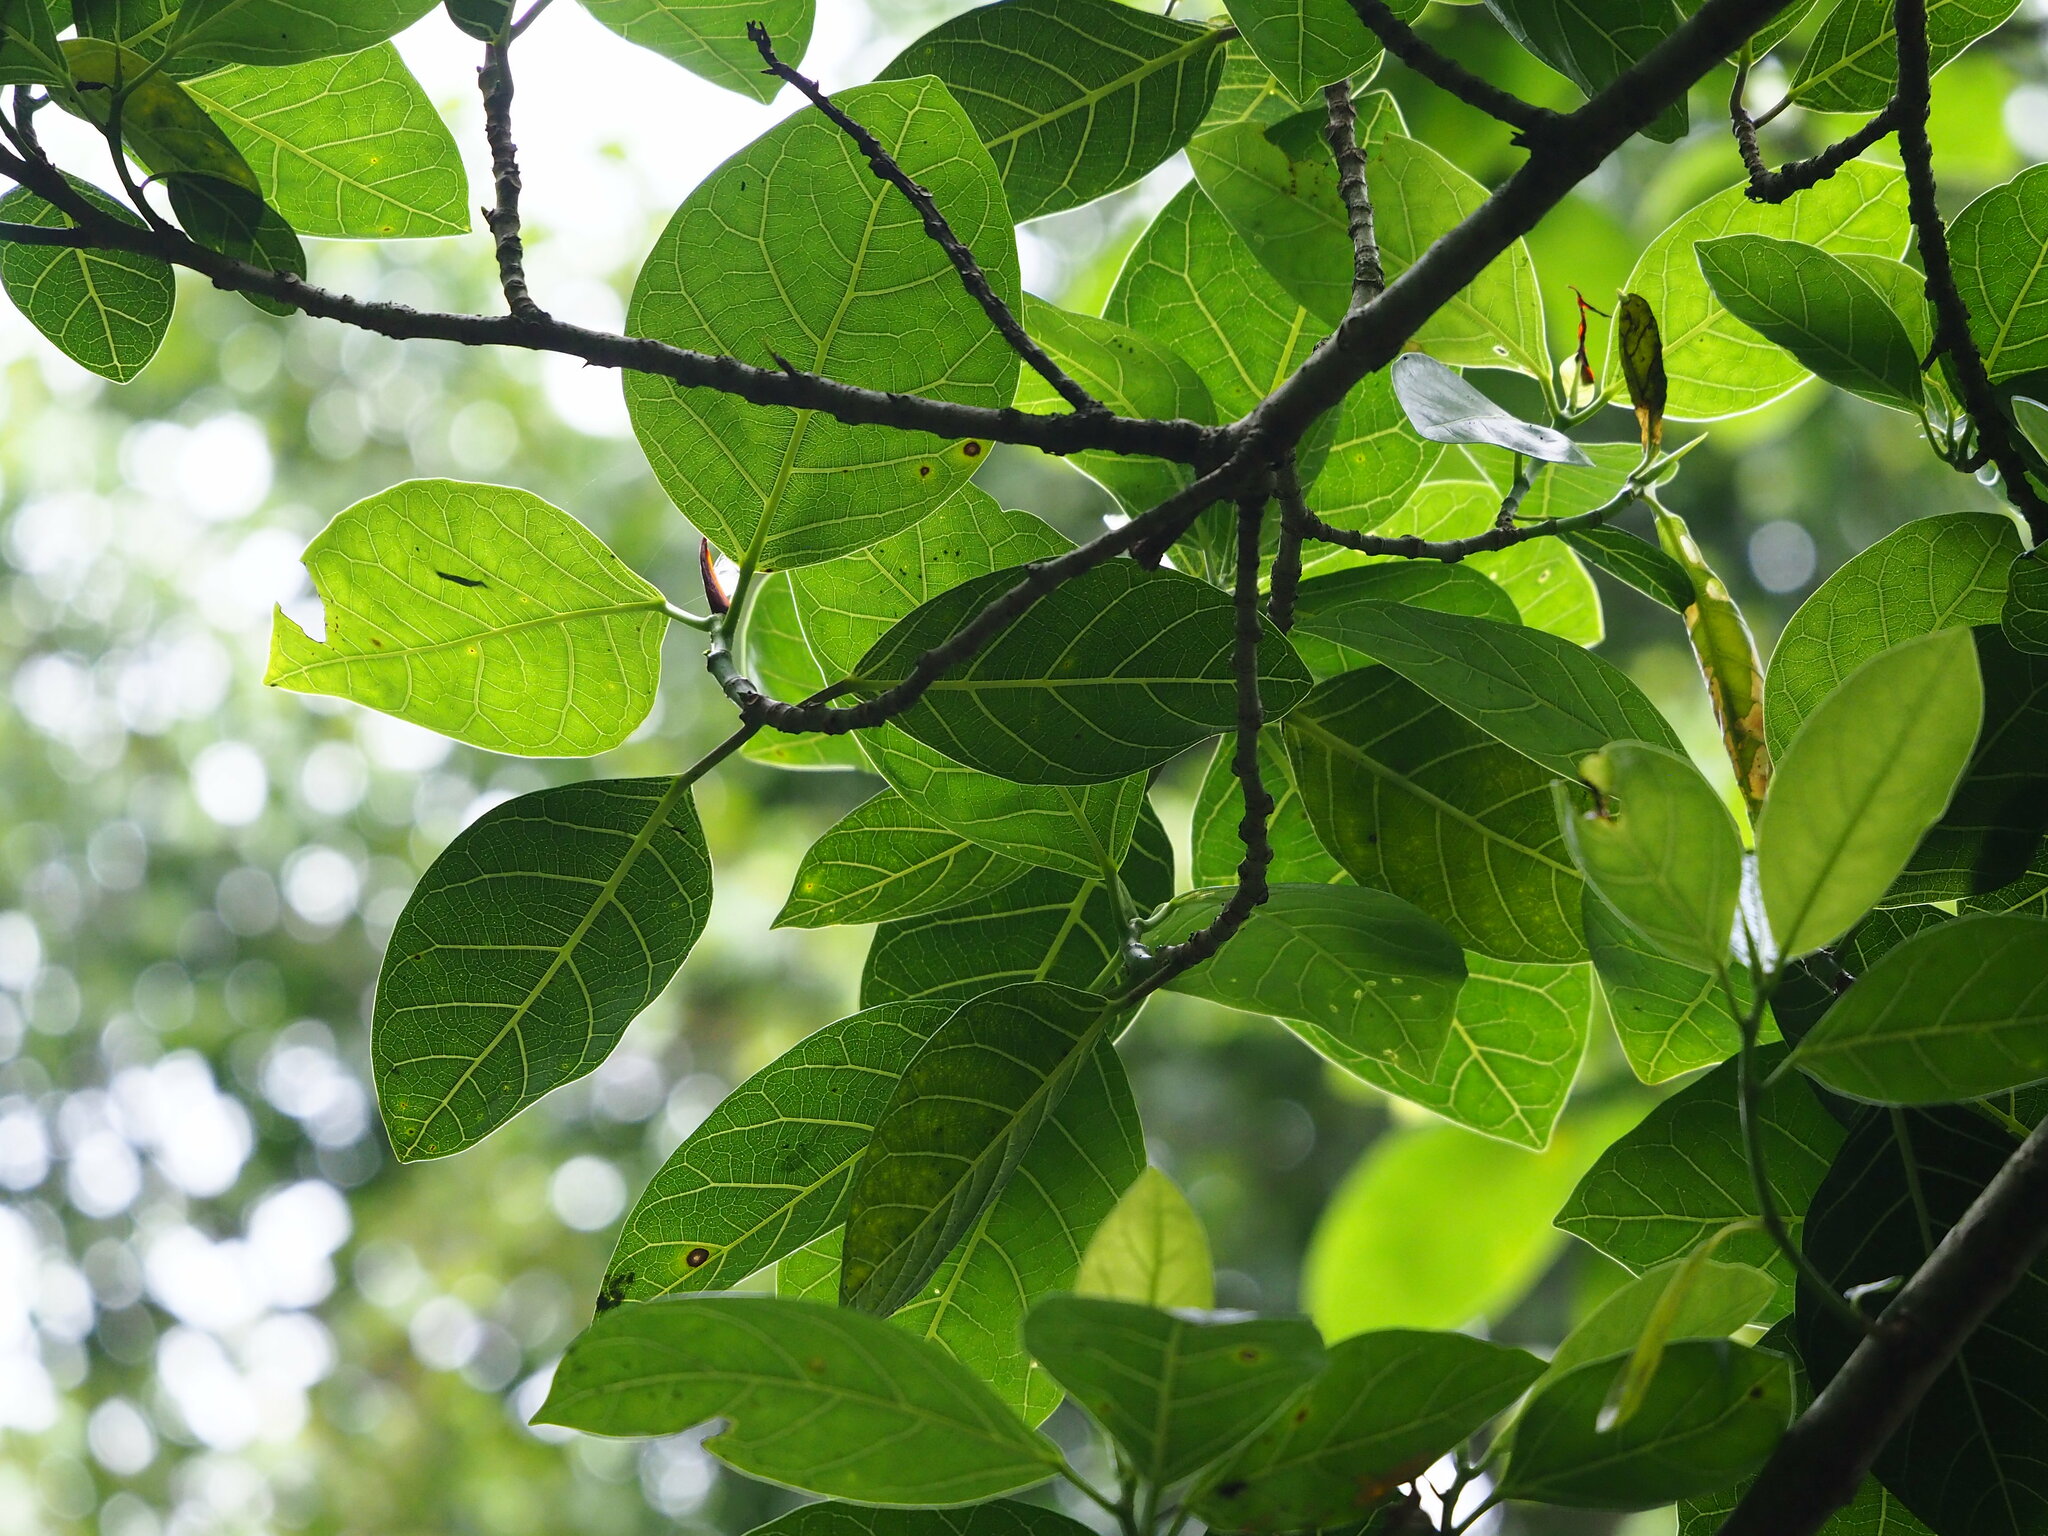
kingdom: Plantae
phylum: Tracheophyta
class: Magnoliopsida
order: Rosales
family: Moraceae
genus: Ficus
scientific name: Ficus septica
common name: Septic fig
